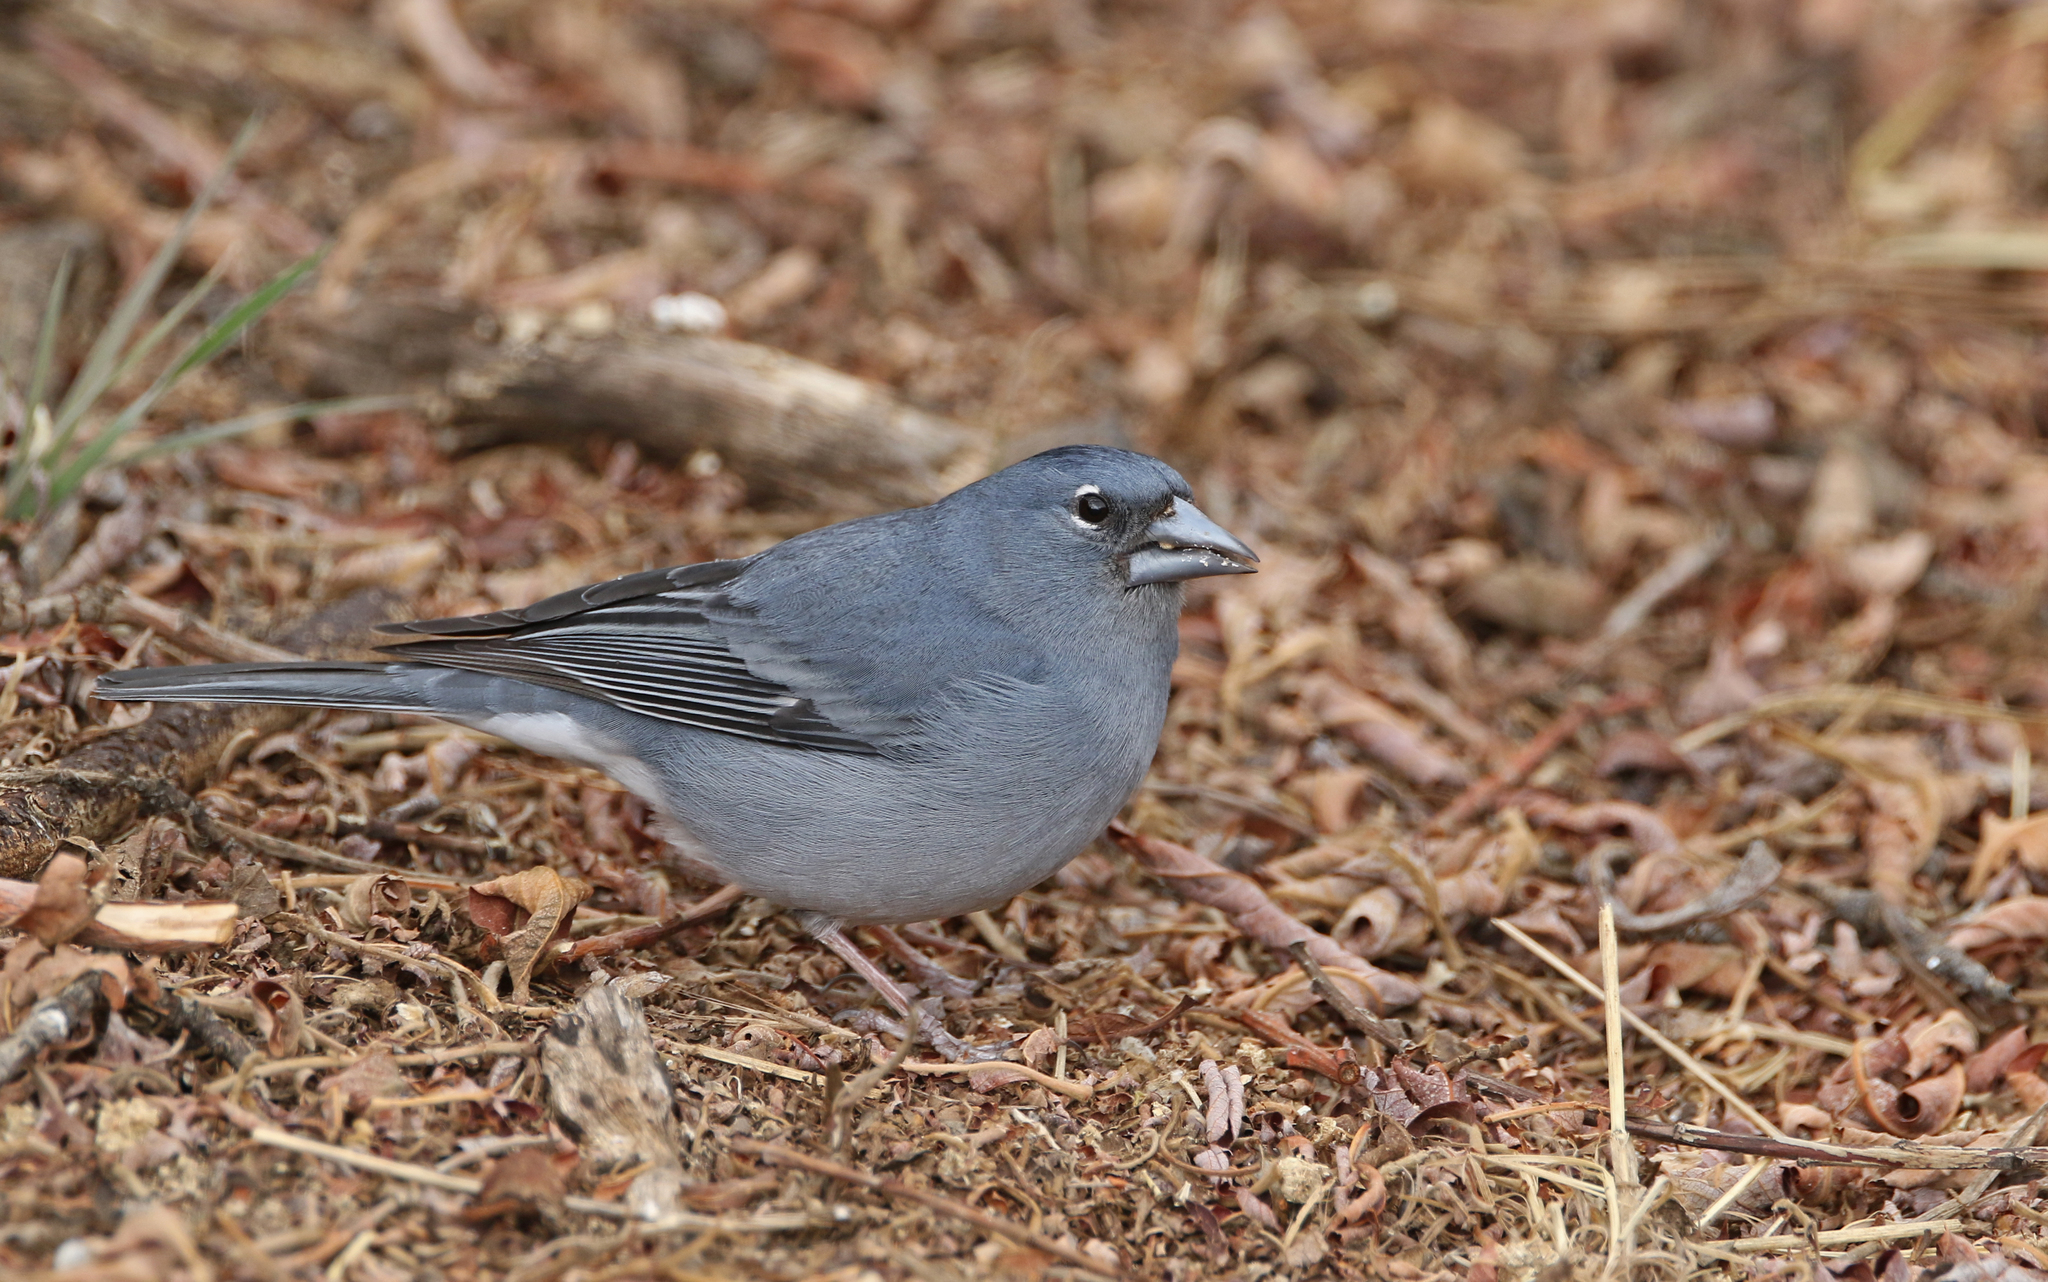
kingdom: Animalia
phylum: Chordata
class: Aves
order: Passeriformes
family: Fringillidae
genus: Fringilla
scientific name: Fringilla teydea
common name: Blue chaffinch
